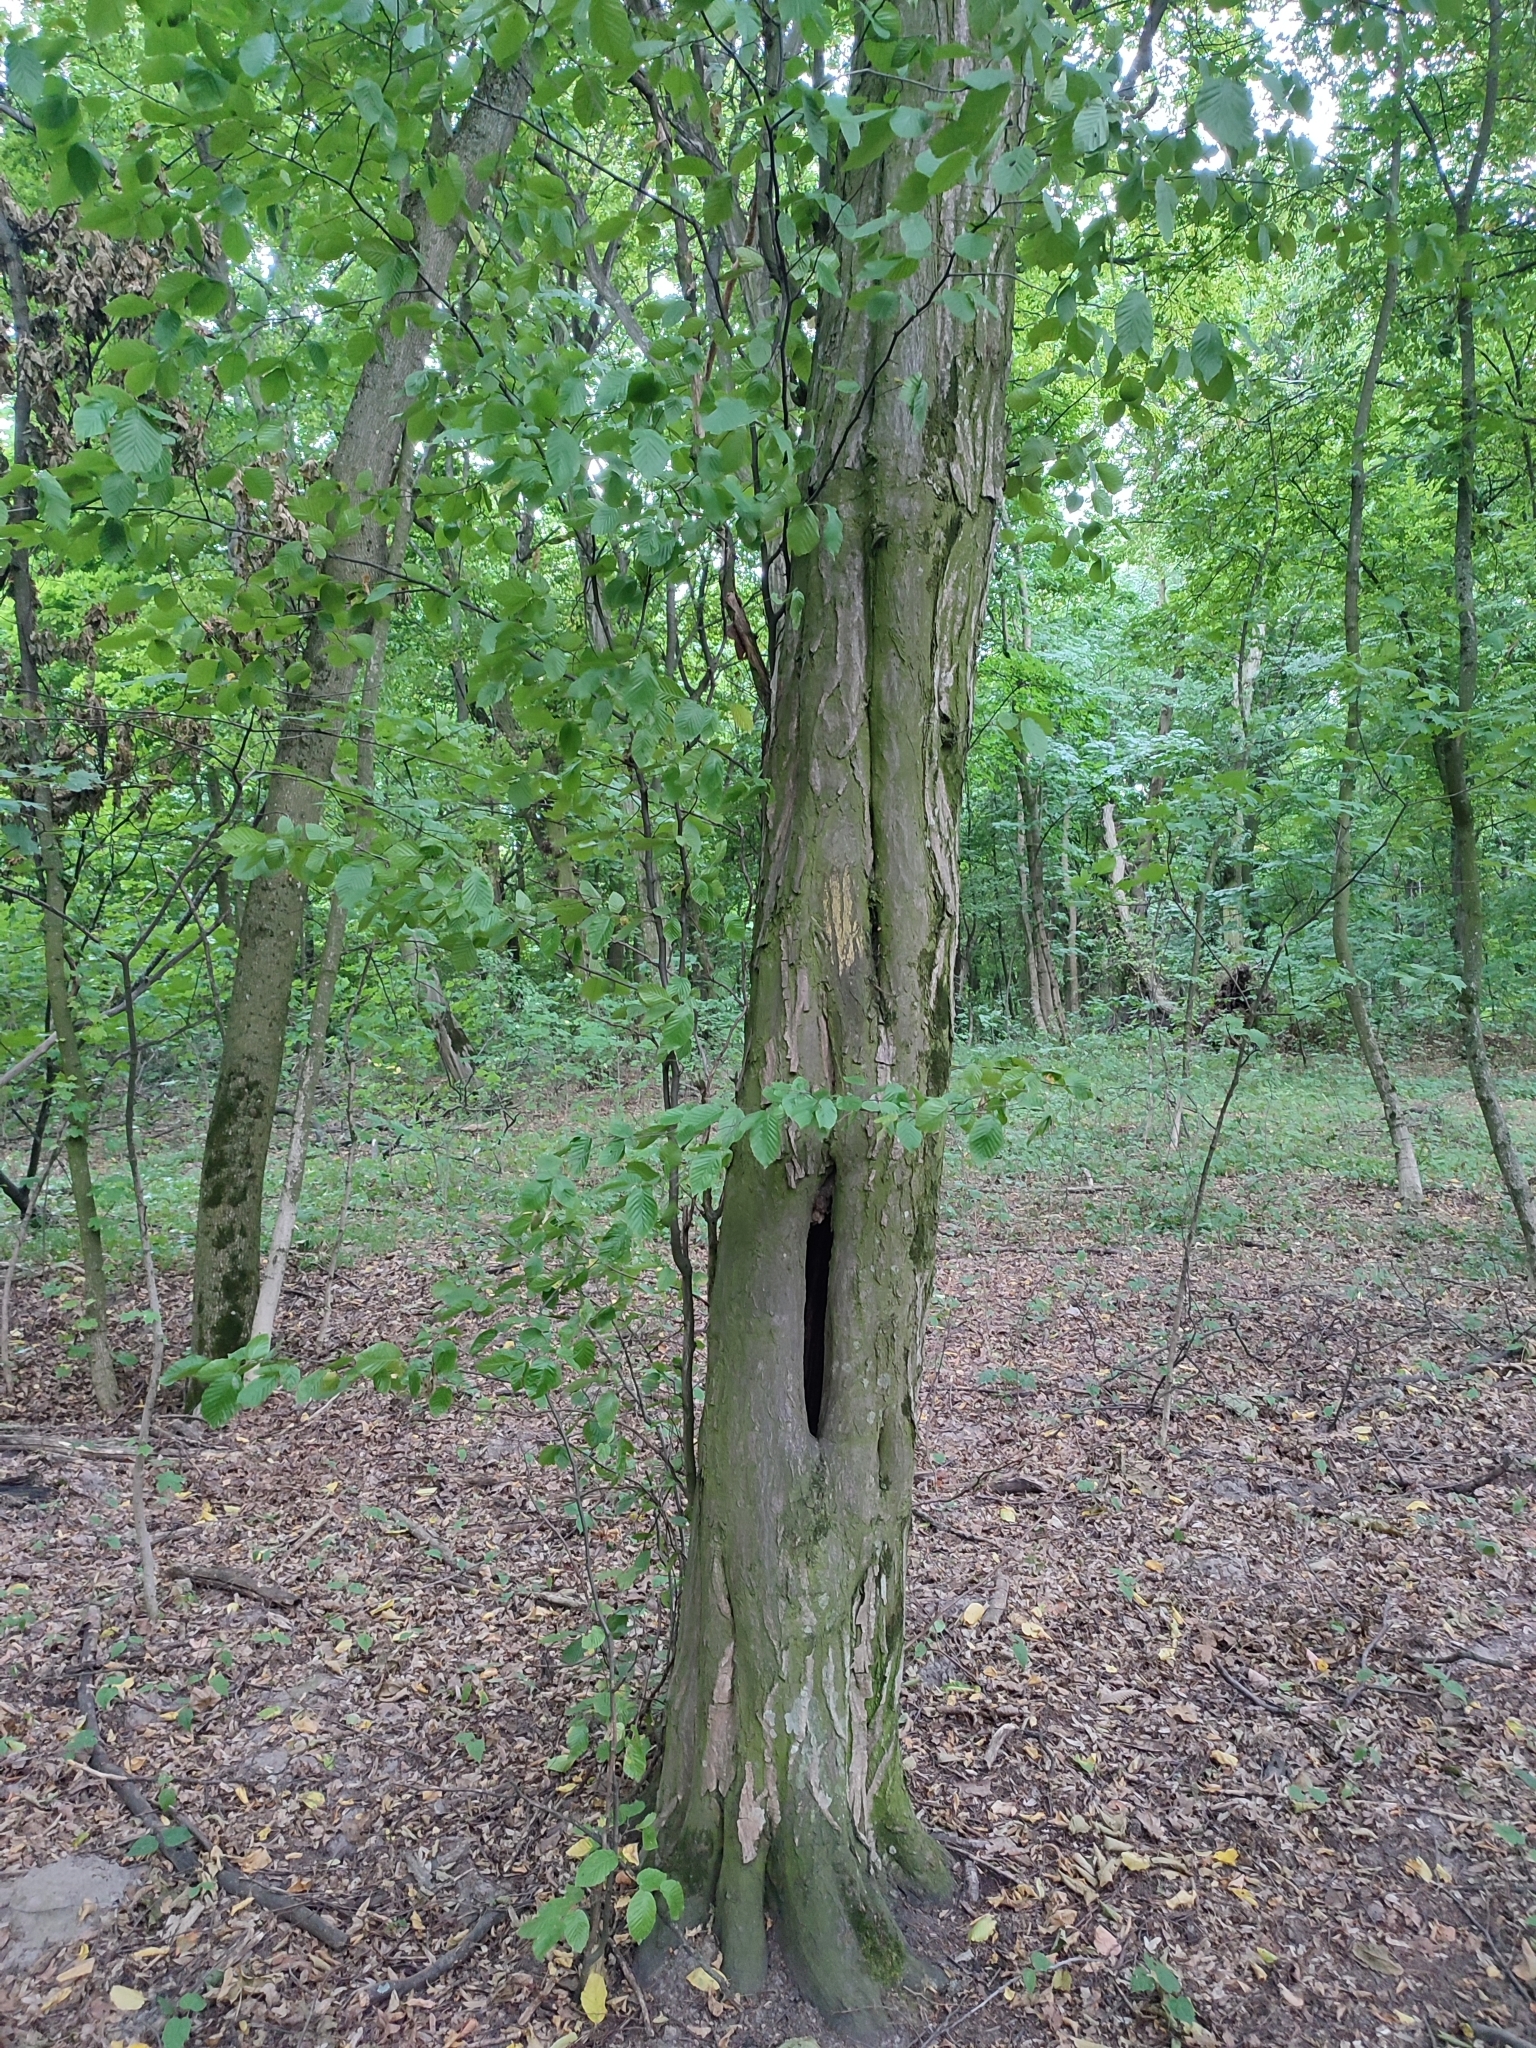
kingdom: Plantae
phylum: Tracheophyta
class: Magnoliopsida
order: Fagales
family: Betulaceae
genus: Carpinus
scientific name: Carpinus betulus
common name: Hornbeam
